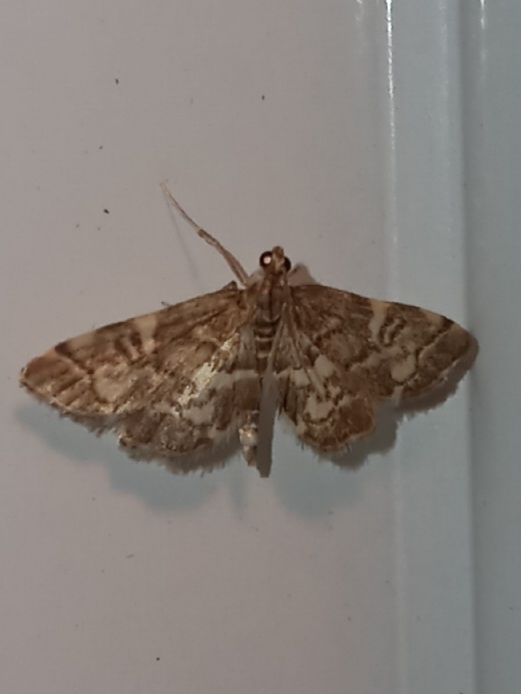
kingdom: Animalia
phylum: Arthropoda
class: Insecta
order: Lepidoptera
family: Crambidae
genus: Anageshna
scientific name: Anageshna primordialis
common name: Yellow-spotted webworm moth
